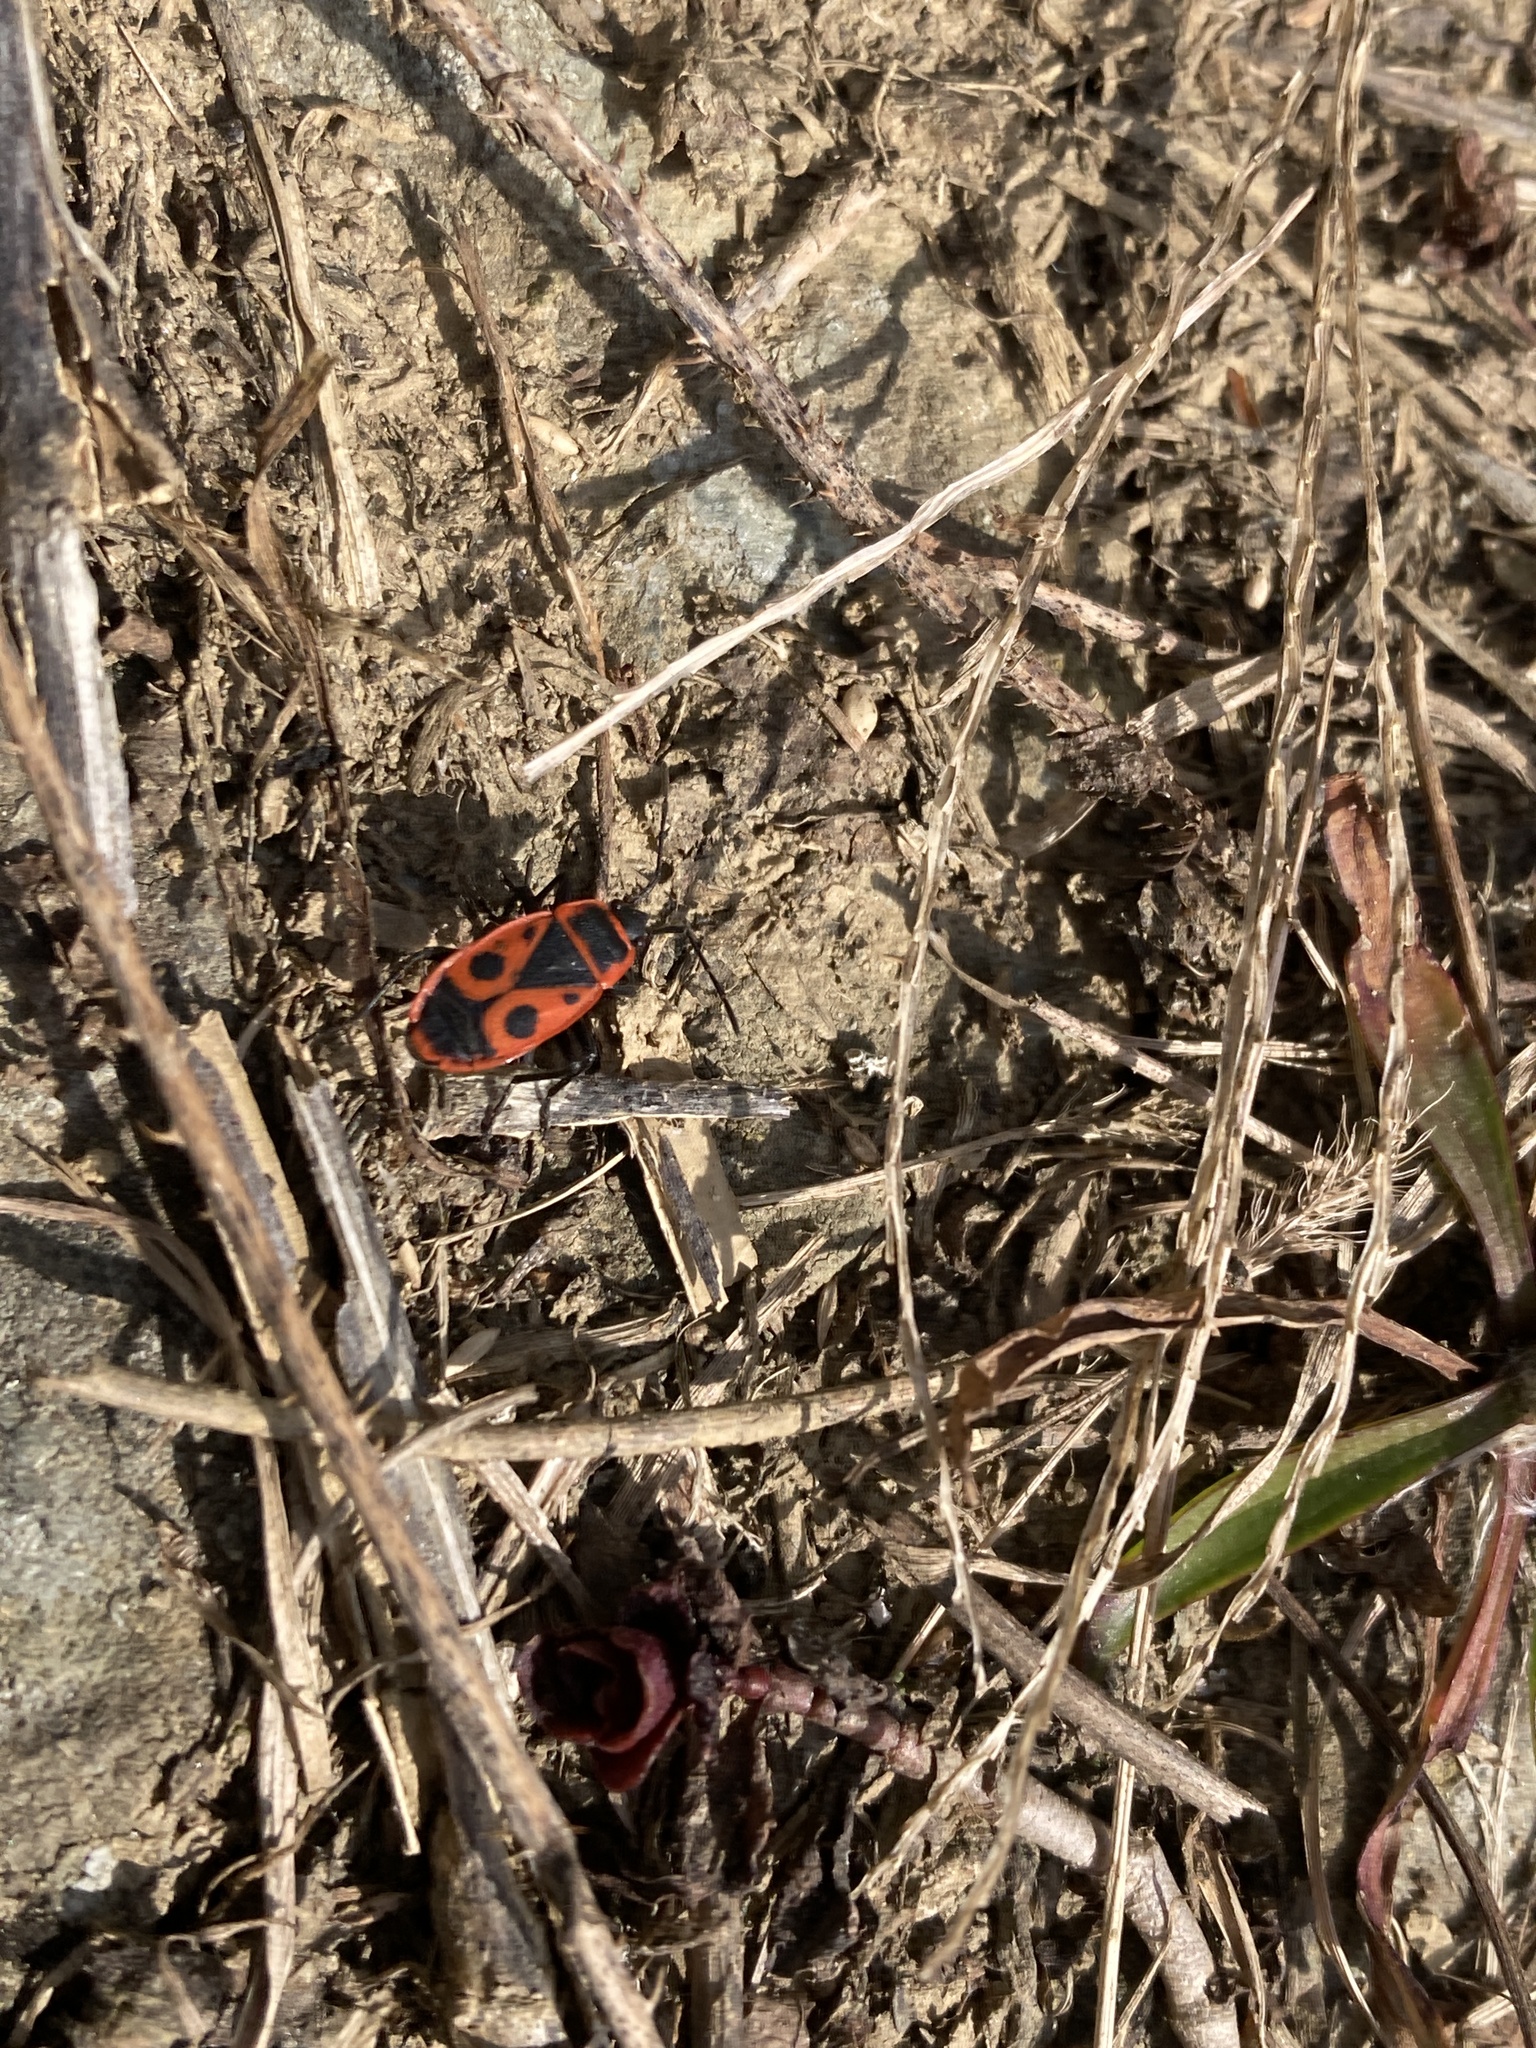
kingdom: Animalia
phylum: Arthropoda
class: Insecta
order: Hemiptera
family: Pyrrhocoridae
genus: Pyrrhocoris
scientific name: Pyrrhocoris apterus
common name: Firebug
